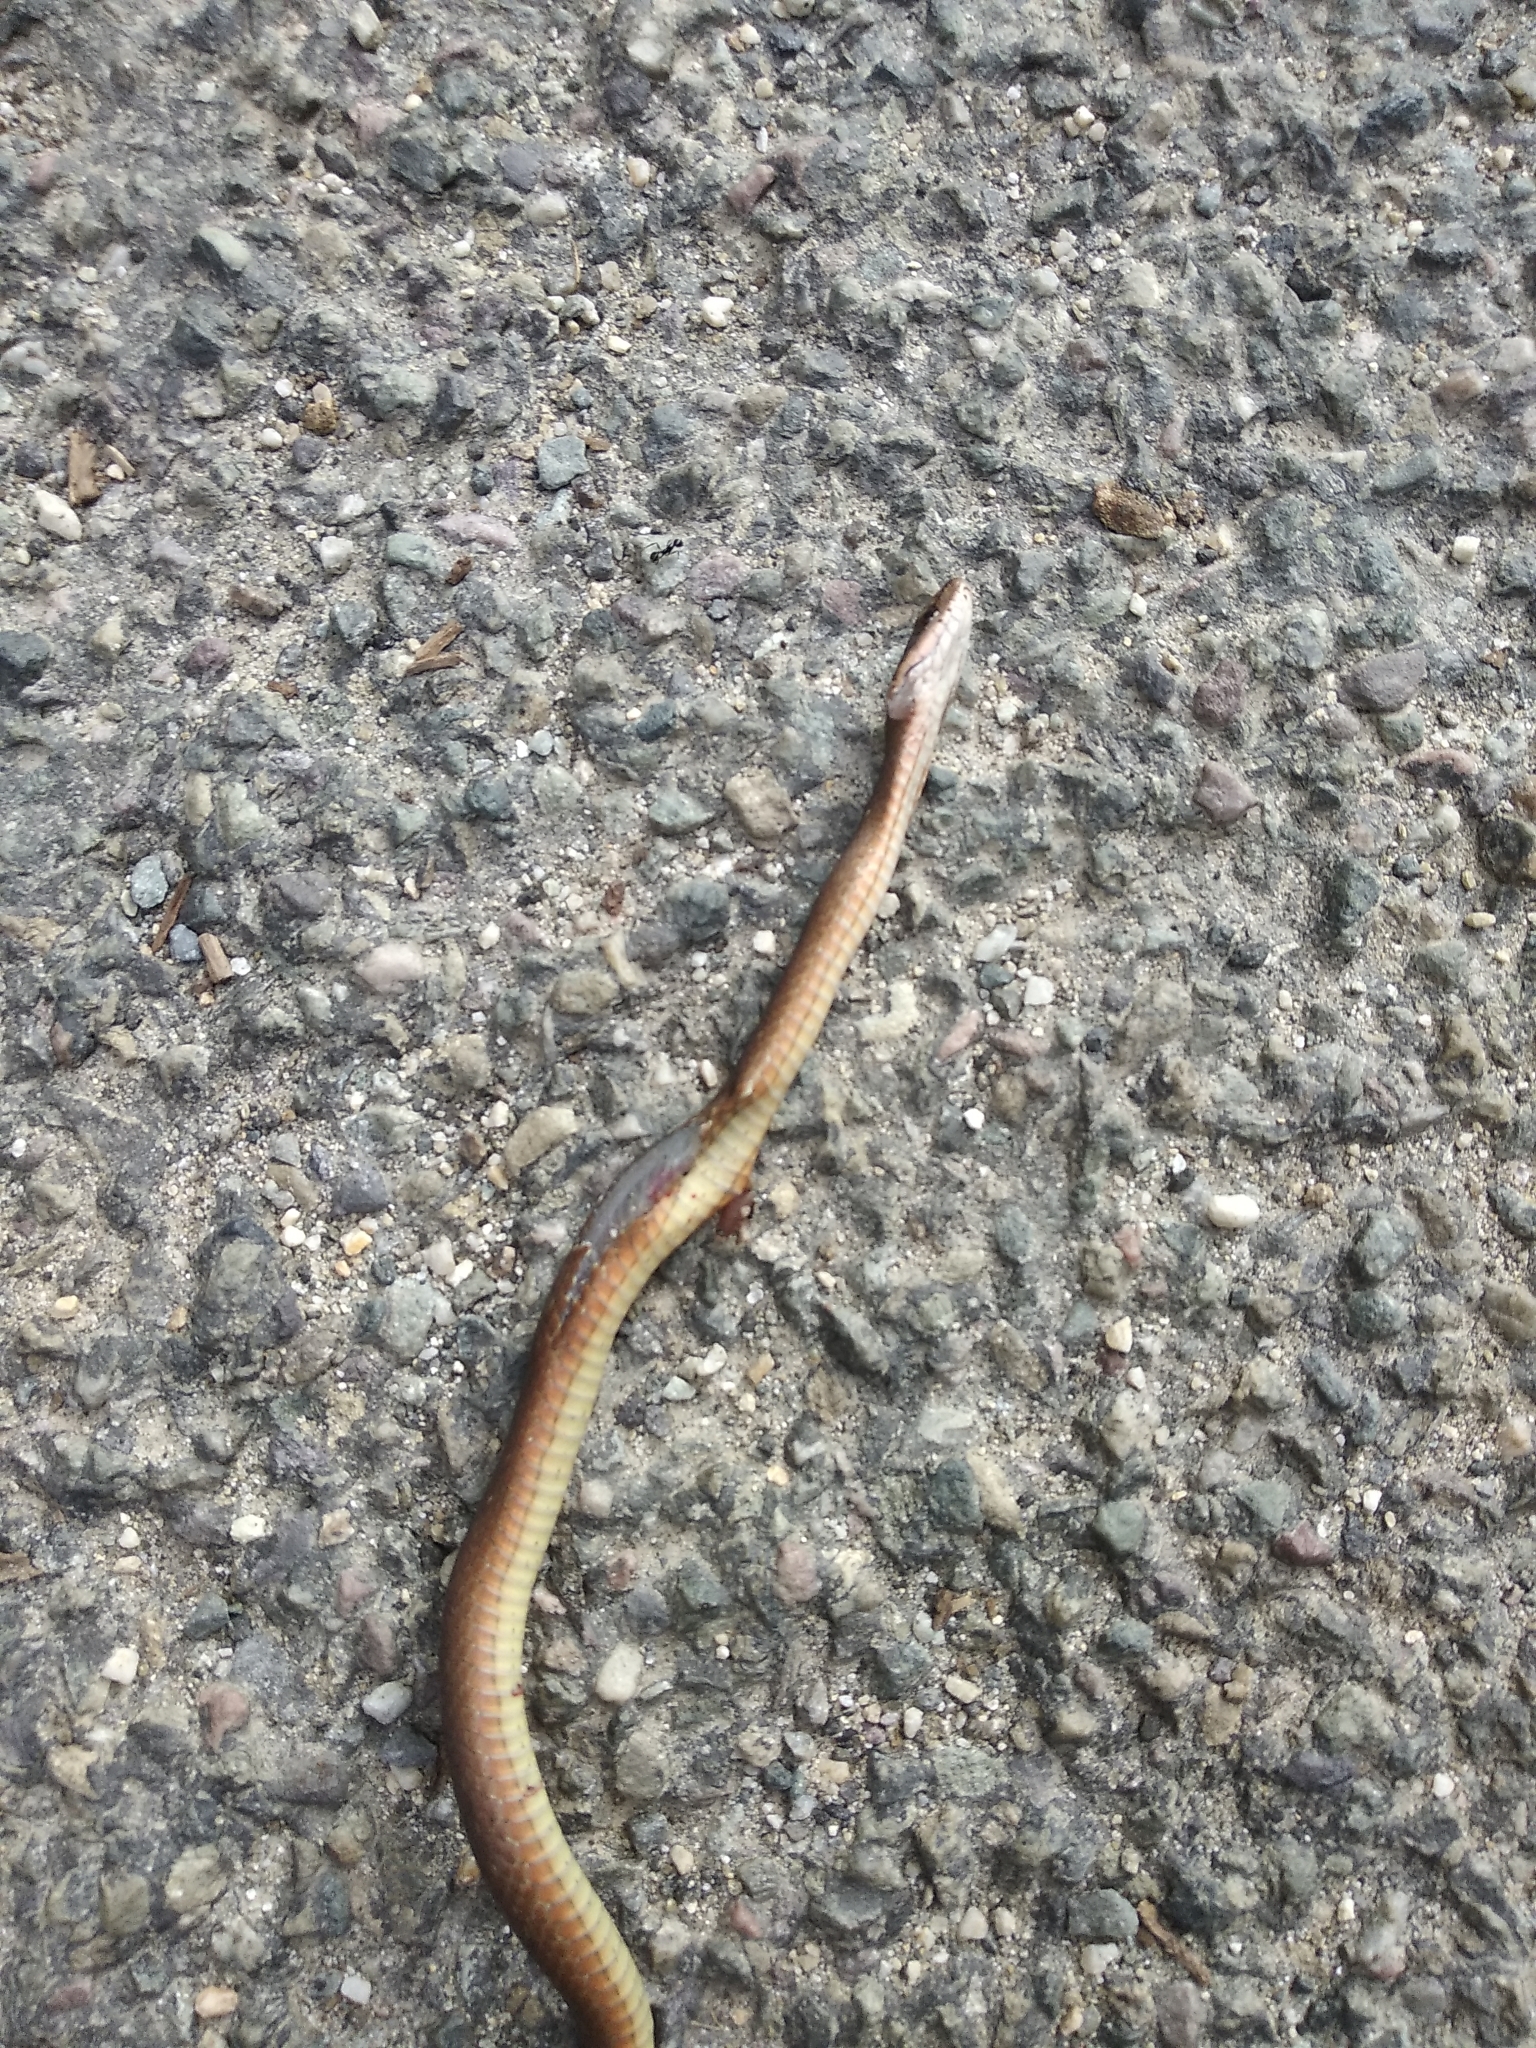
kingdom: Animalia
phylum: Chordata
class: Squamata
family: Colubridae
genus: Herpetoreas
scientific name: Herpetoreas platyceps
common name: Himalayan keelback
